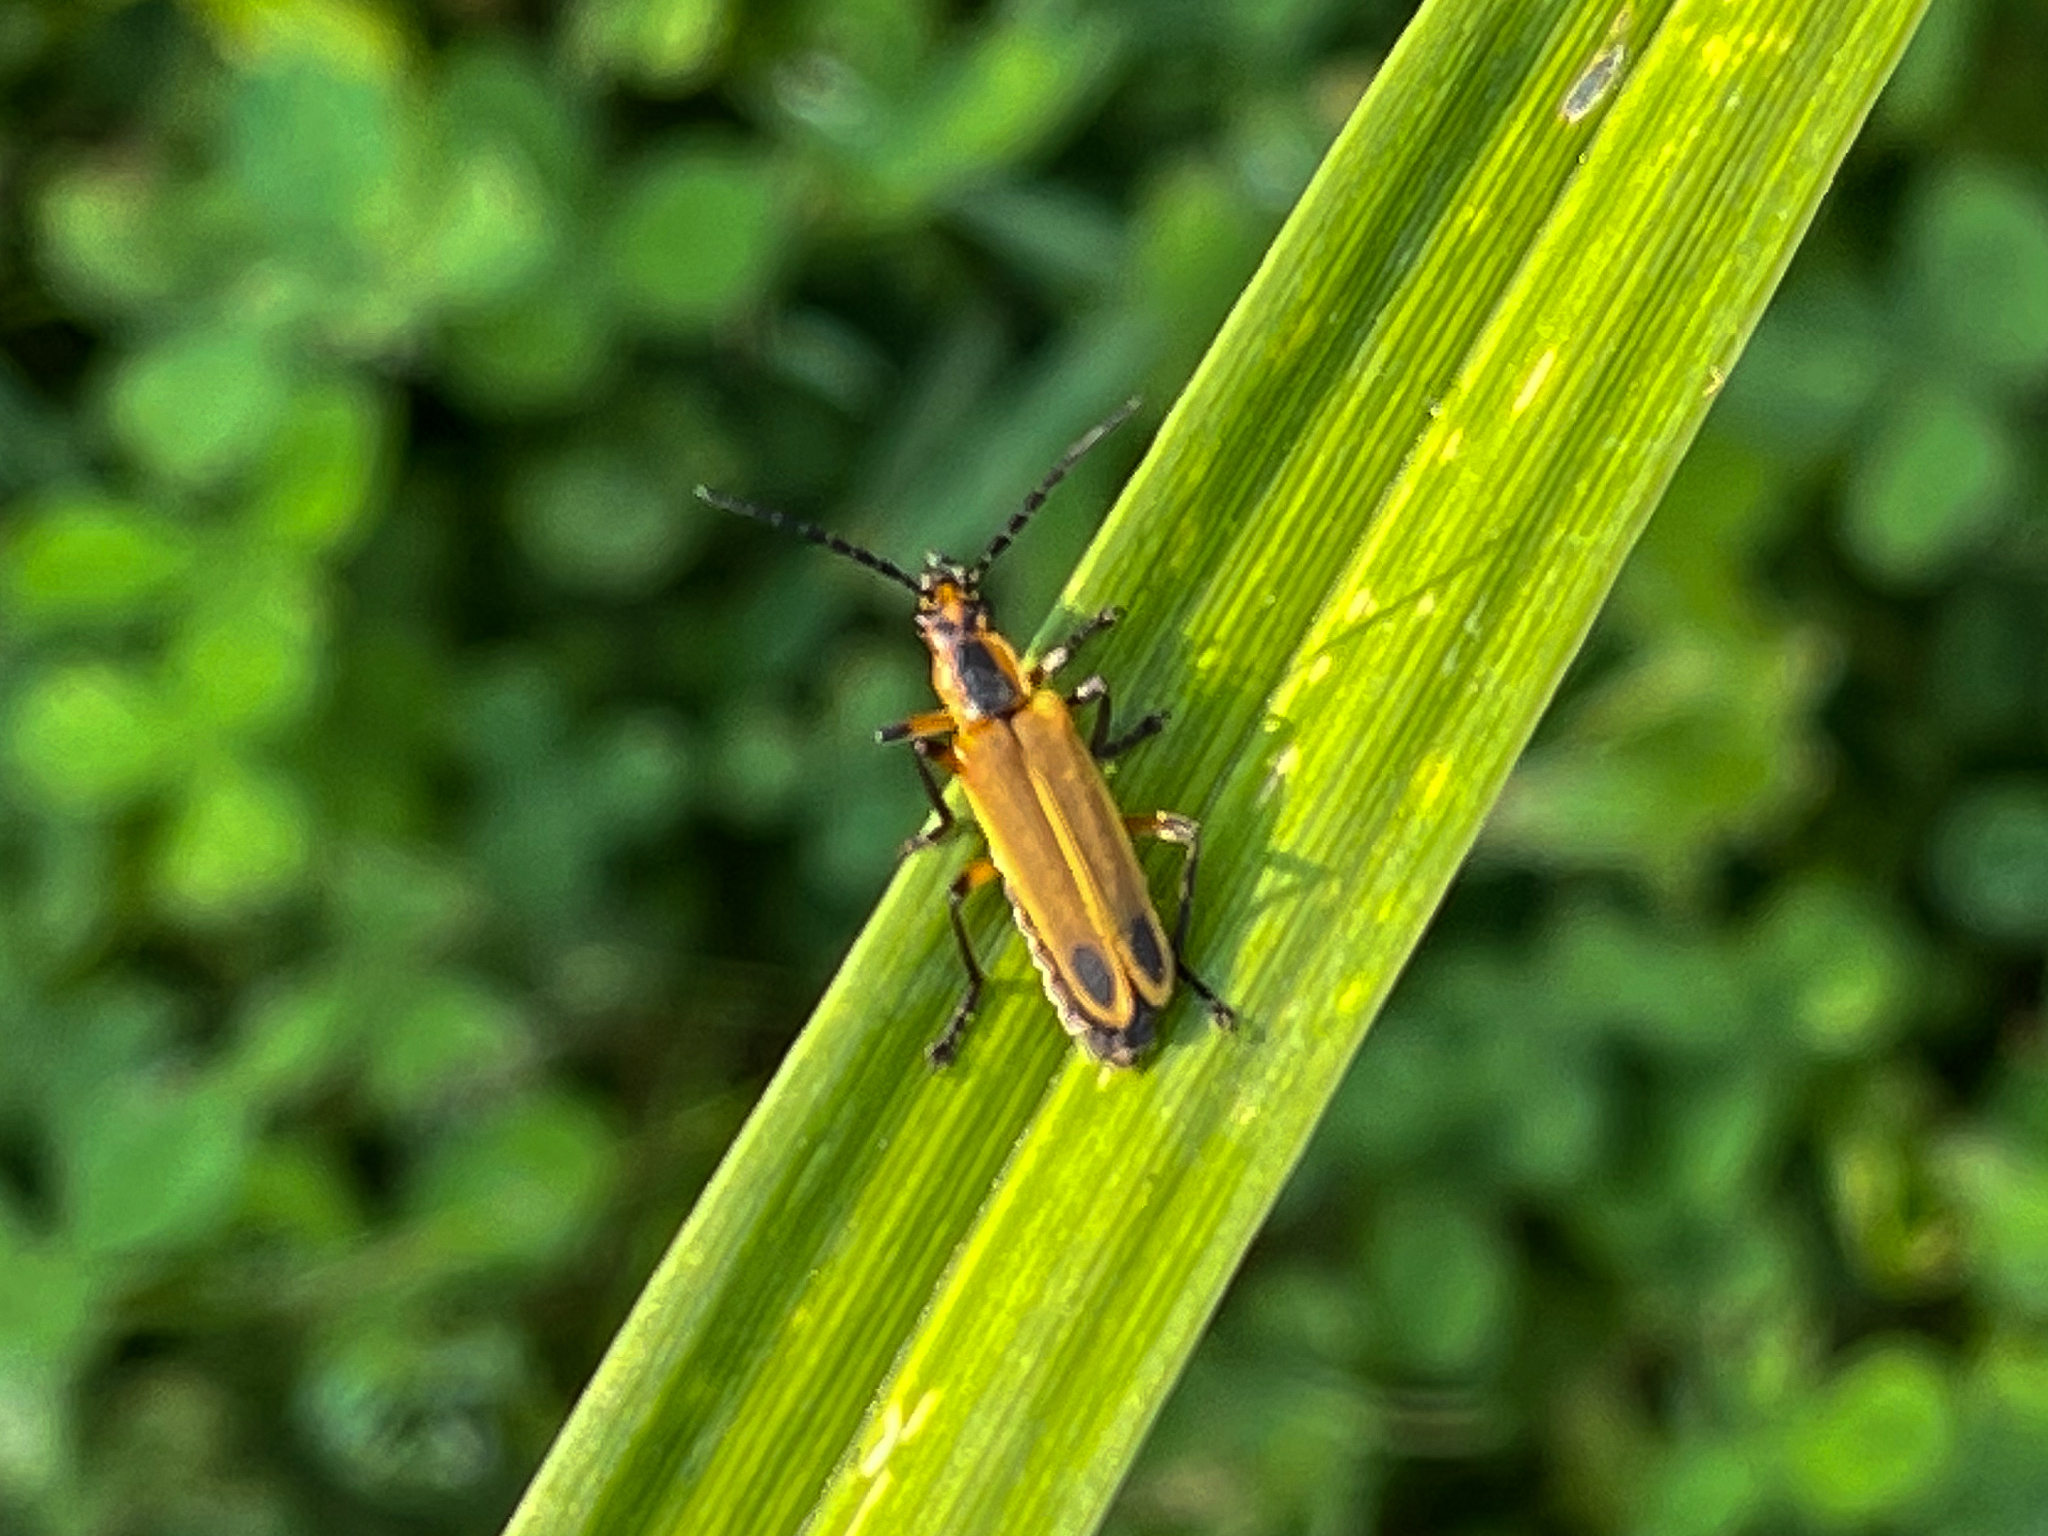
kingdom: Animalia
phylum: Arthropoda
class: Insecta
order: Coleoptera
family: Cantharidae
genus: Chauliognathus
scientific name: Chauliognathus marginatus
